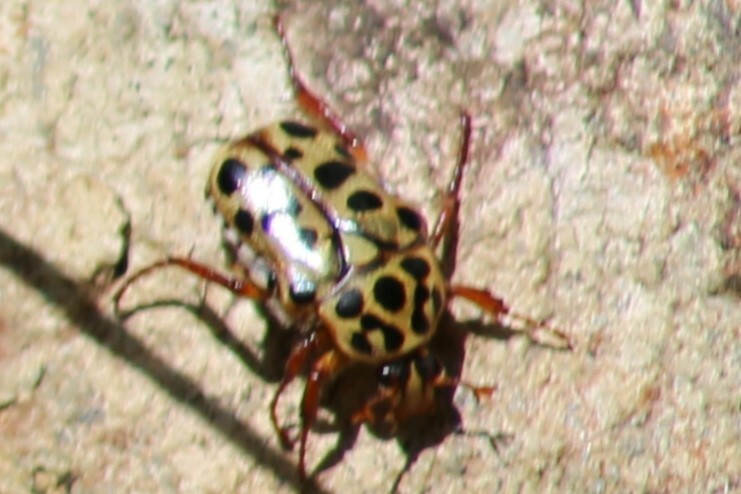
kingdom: Animalia
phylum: Arthropoda
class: Insecta
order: Coleoptera
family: Scarabaeidae
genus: Neorrhina
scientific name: Neorrhina punctatum
